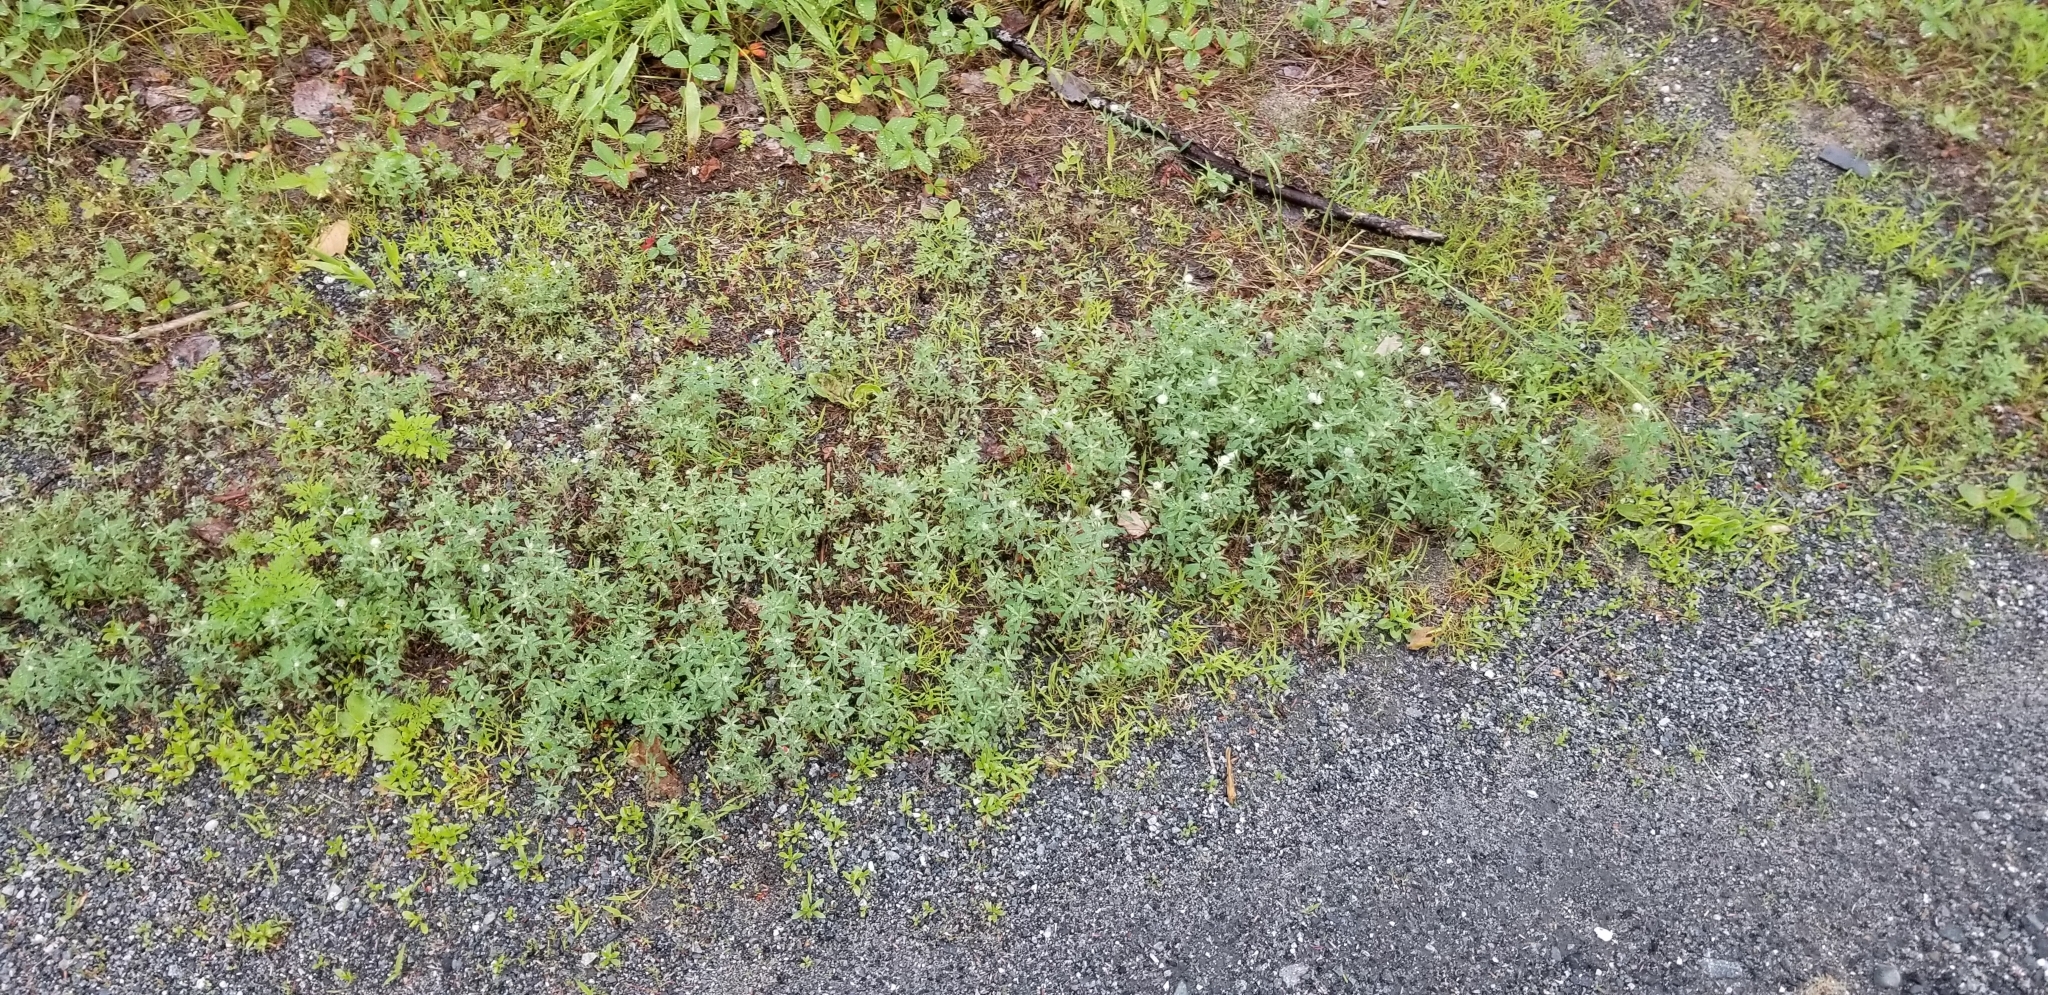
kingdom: Plantae
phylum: Tracheophyta
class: Magnoliopsida
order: Fabales
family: Fabaceae
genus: Trifolium
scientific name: Trifolium arvense
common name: Hare's-foot clover
